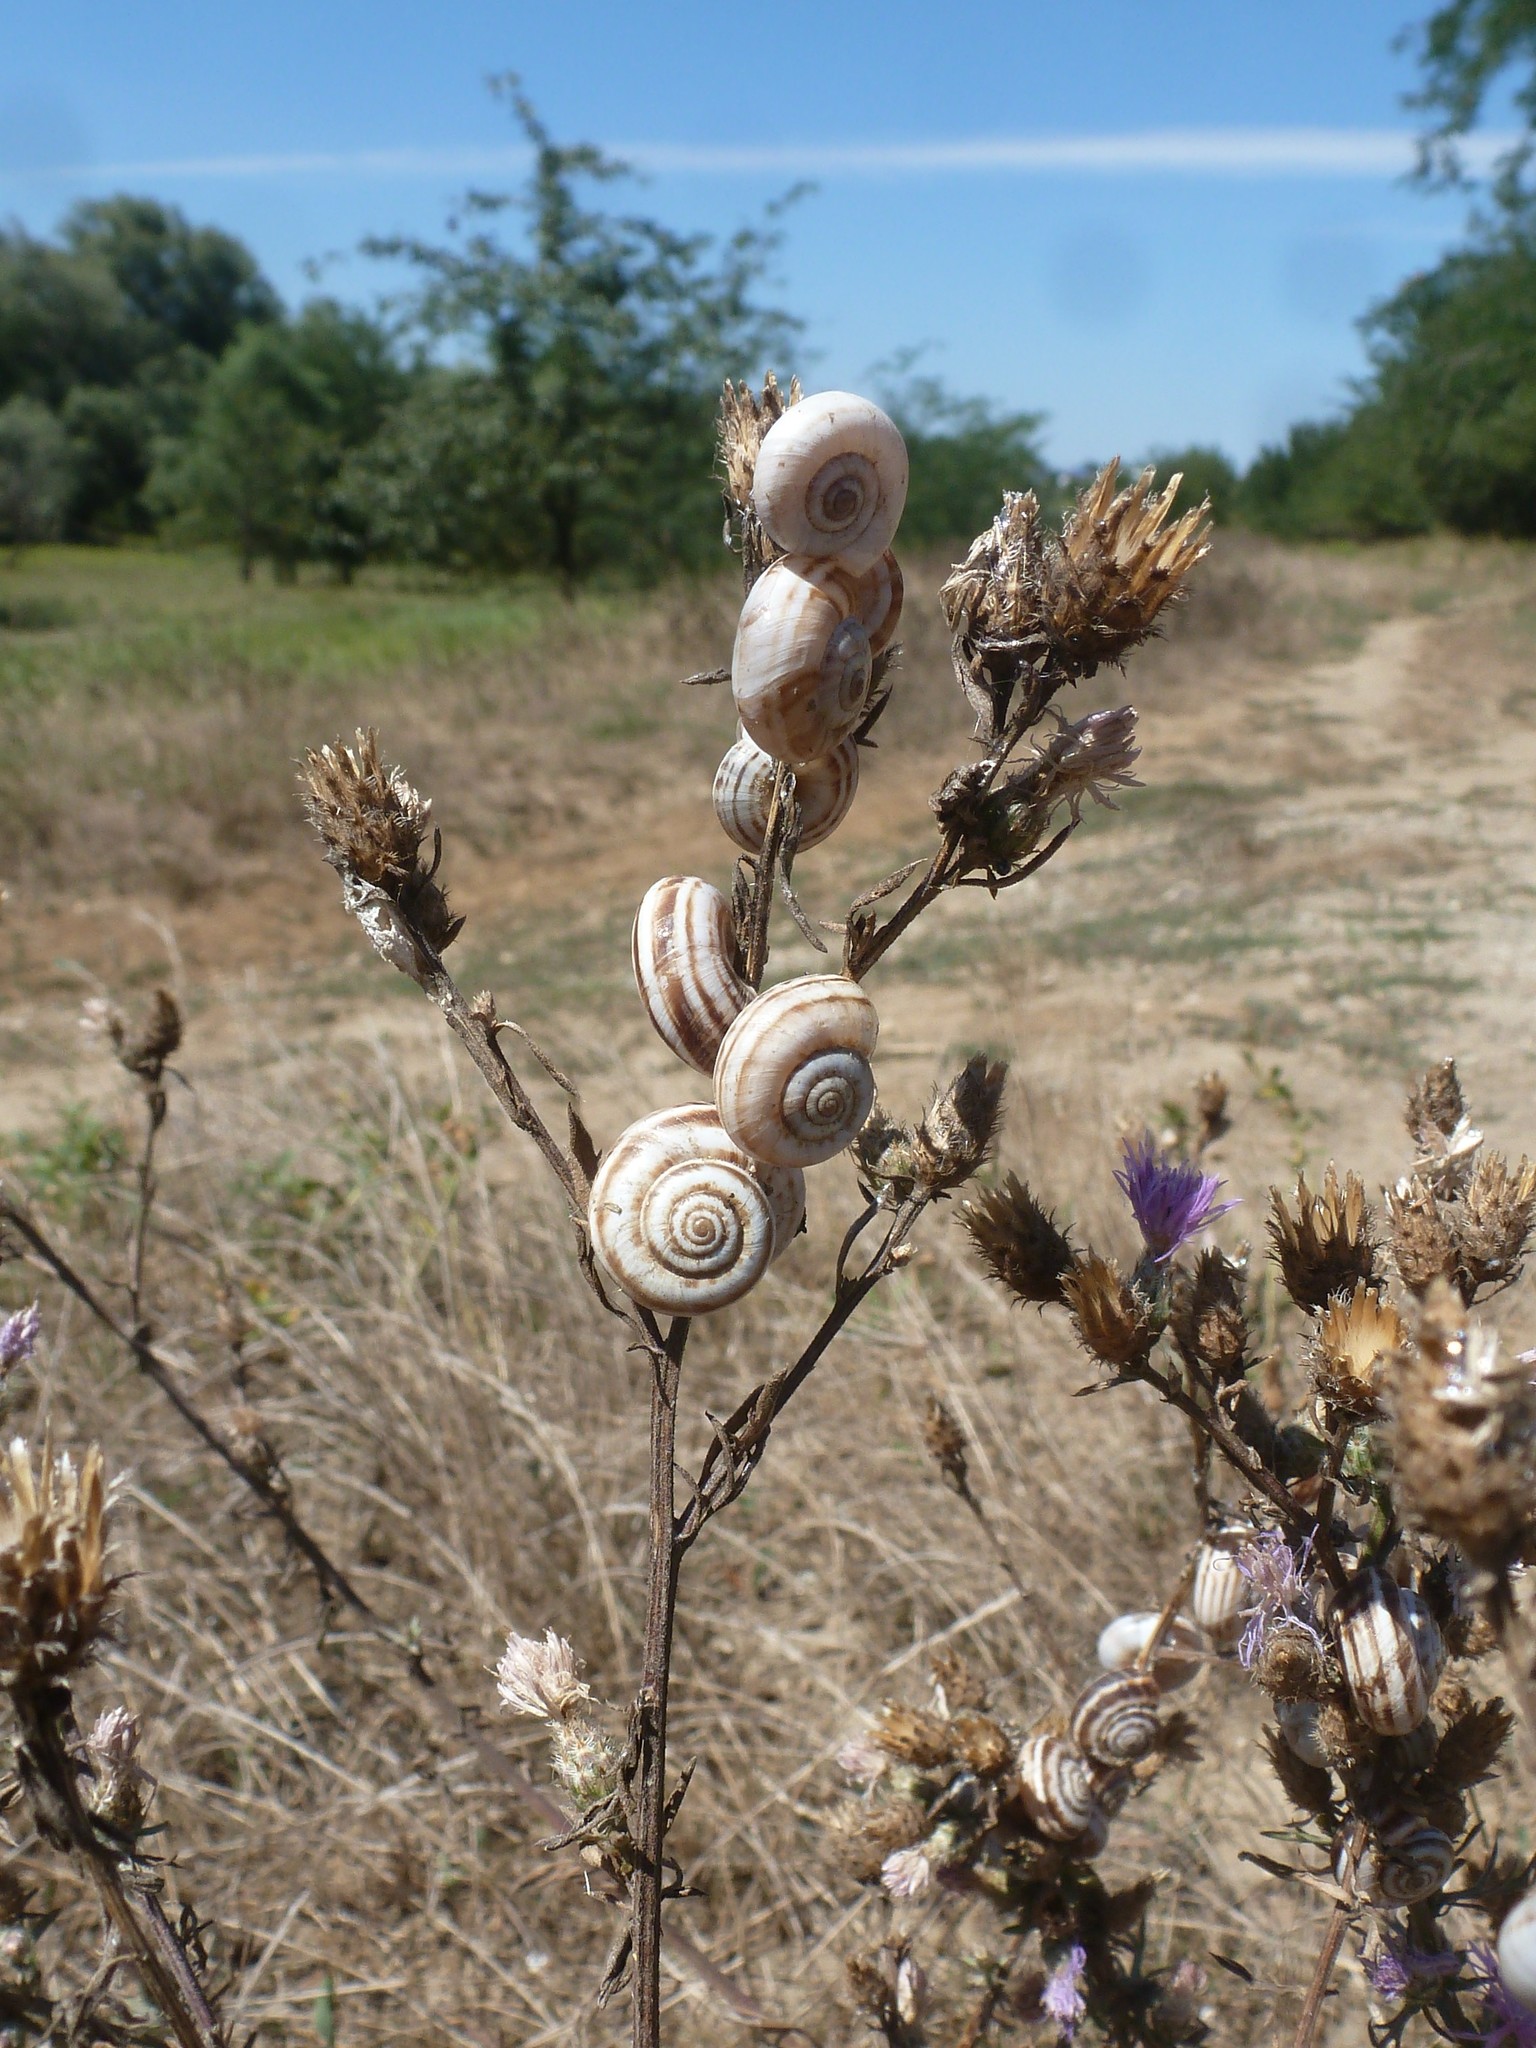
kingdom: Animalia
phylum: Mollusca
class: Gastropoda
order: Stylommatophora
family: Geomitridae
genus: Xeropicta
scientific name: Xeropicta derbentina
